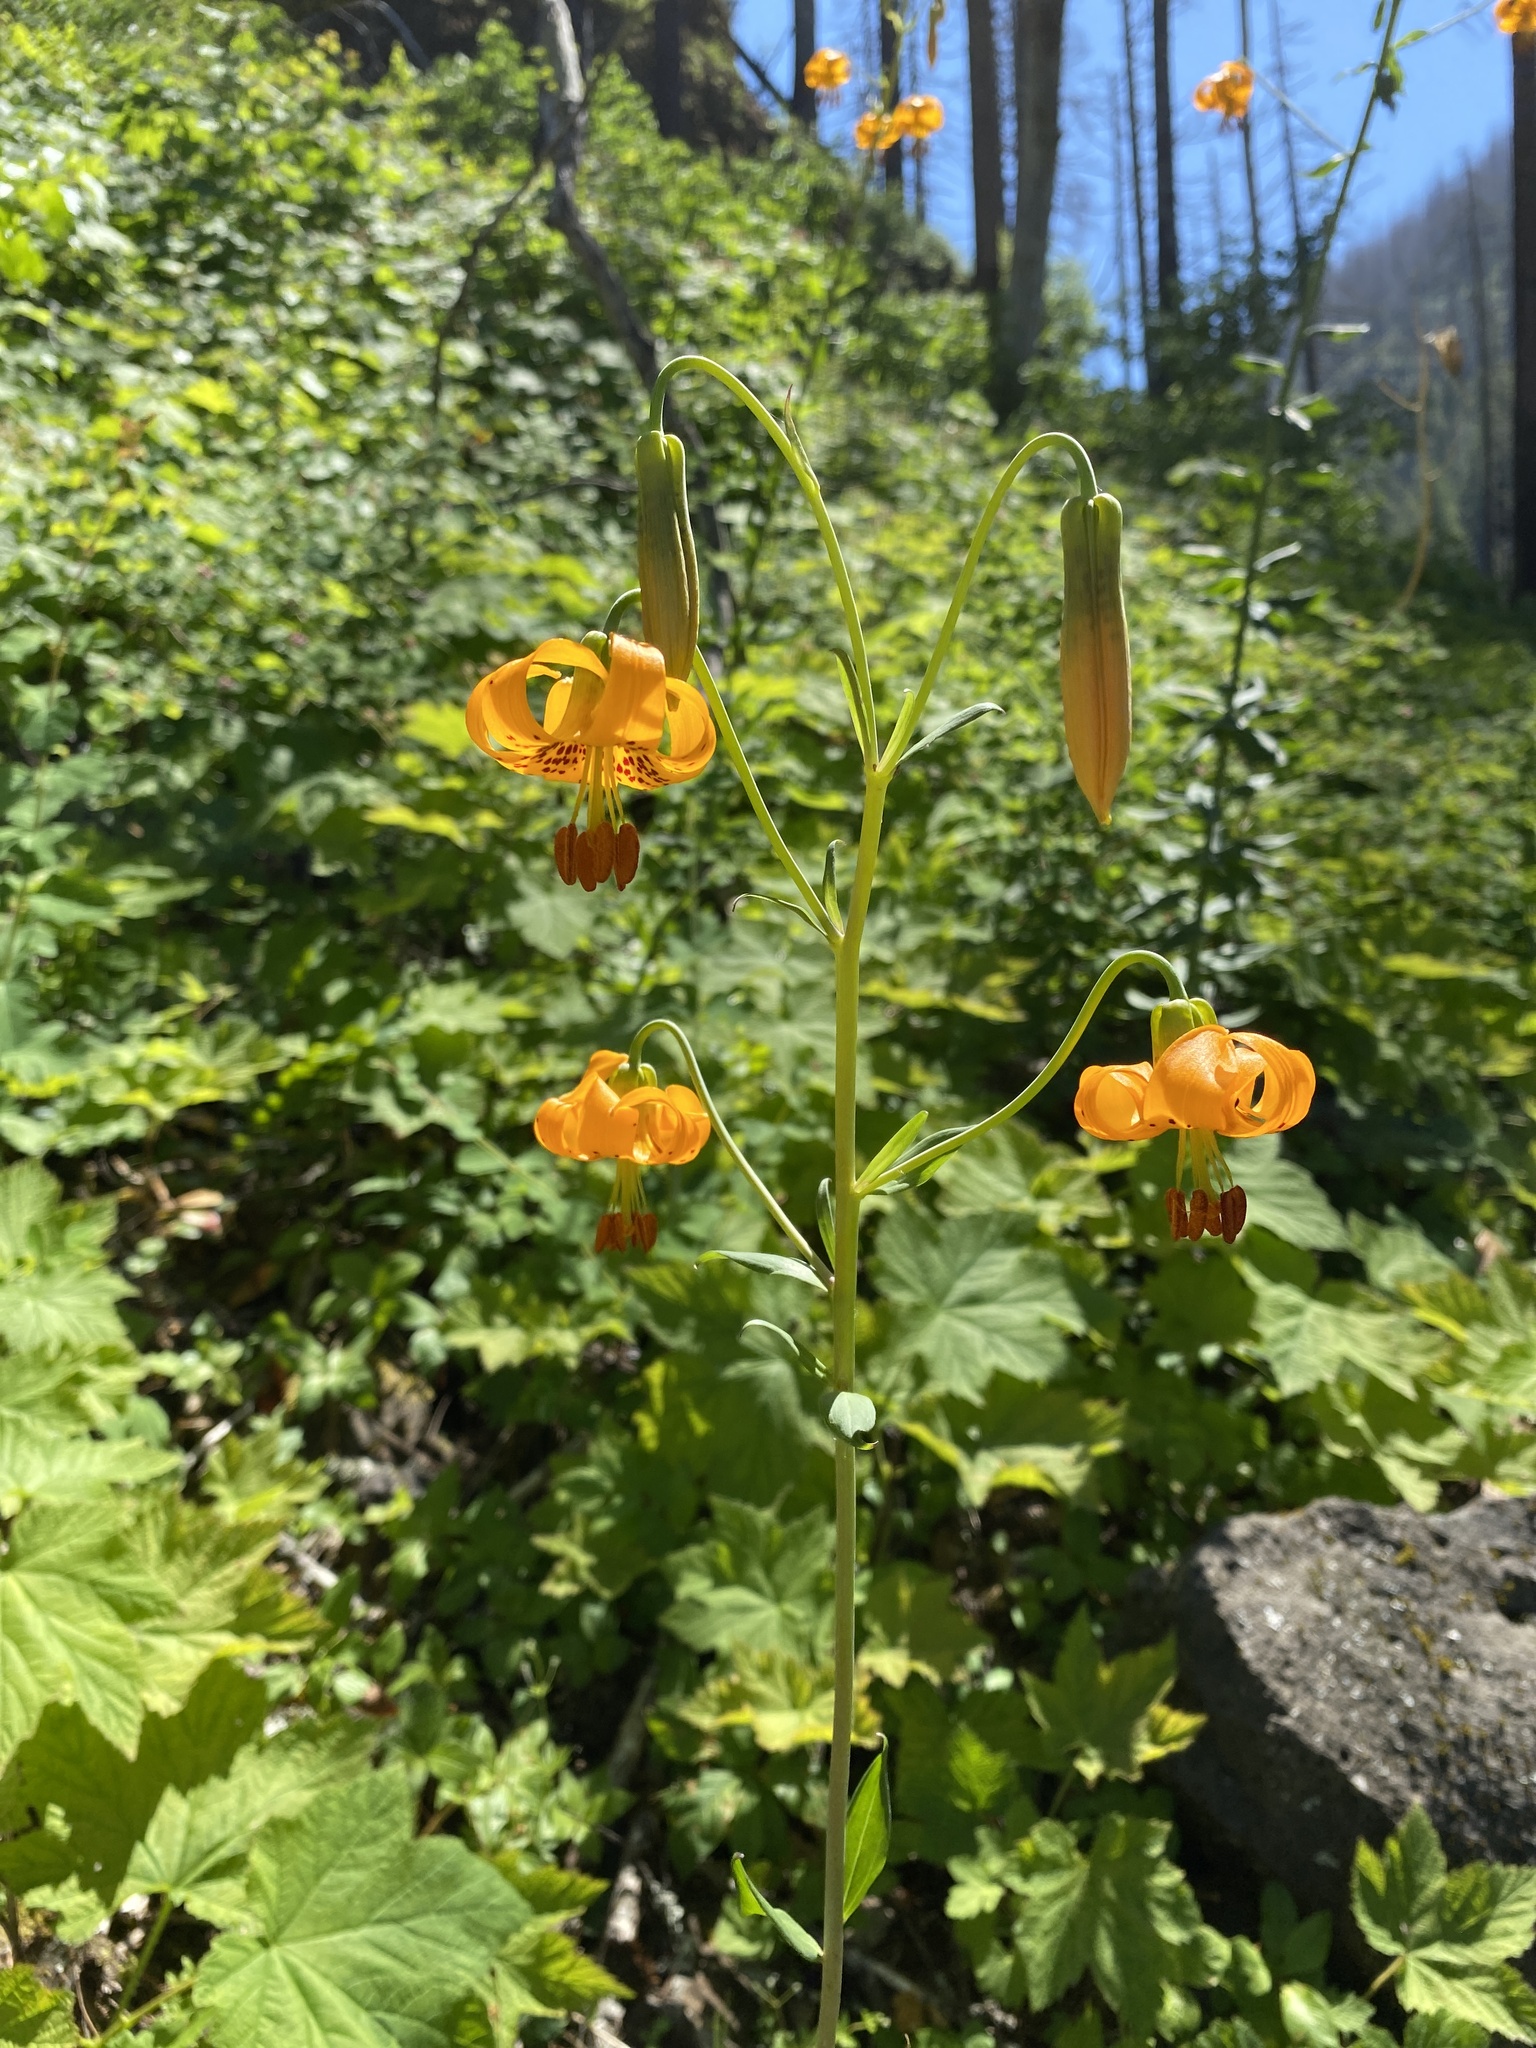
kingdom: Plantae
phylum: Tracheophyta
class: Liliopsida
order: Liliales
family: Liliaceae
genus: Lilium
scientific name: Lilium columbianum
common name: Columbia lily
